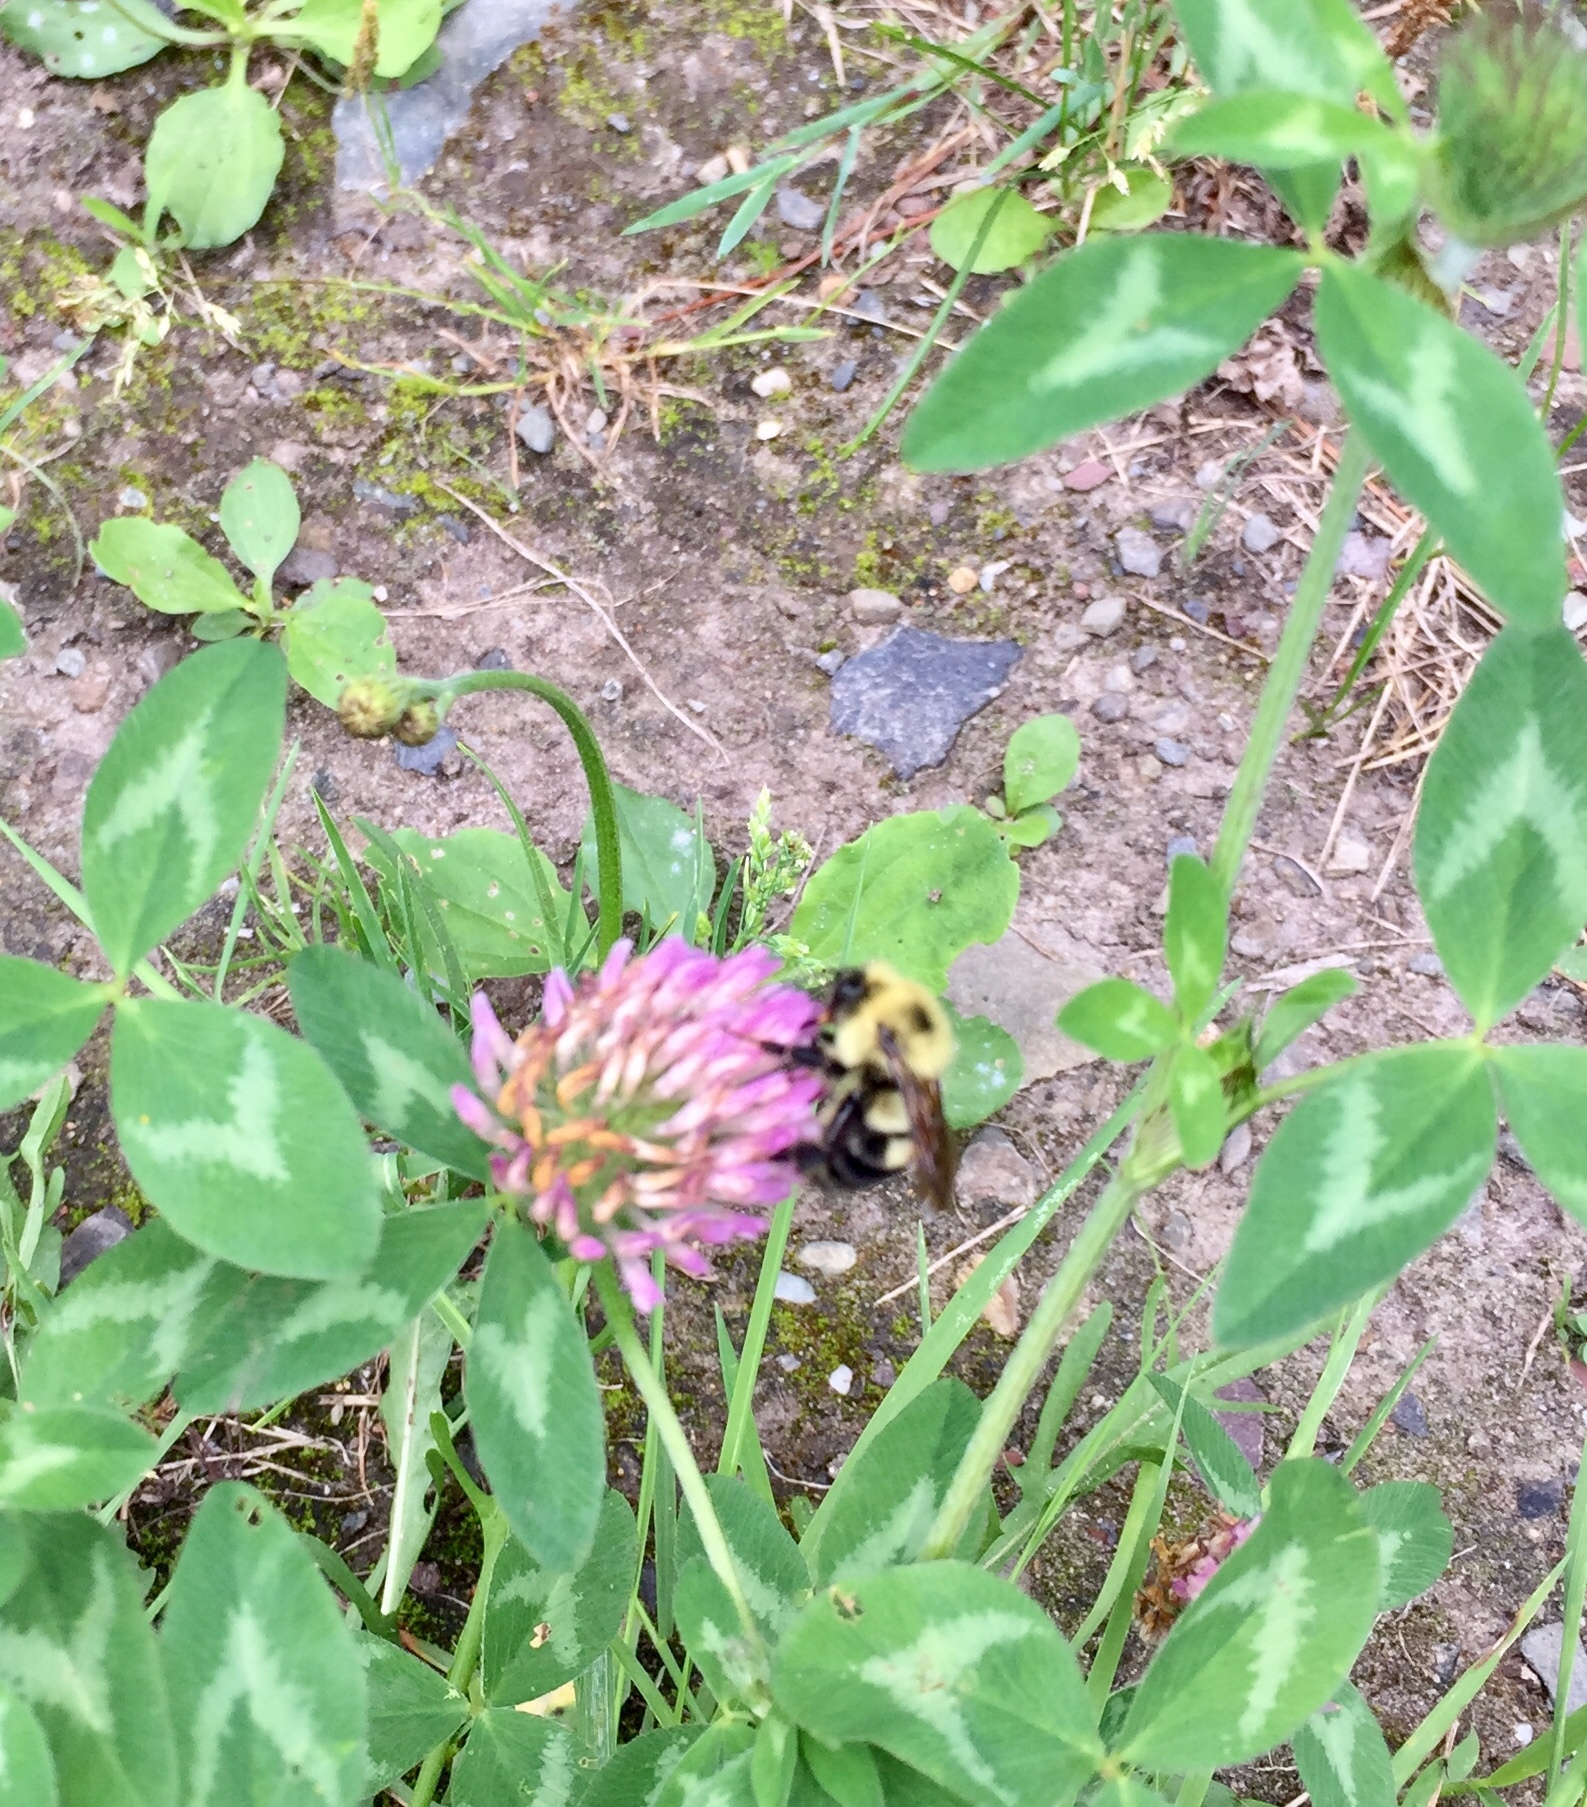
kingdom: Animalia
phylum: Arthropoda
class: Insecta
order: Hymenoptera
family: Apidae
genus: Bombus
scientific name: Bombus bimaculatus
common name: Two-spotted bumble bee
